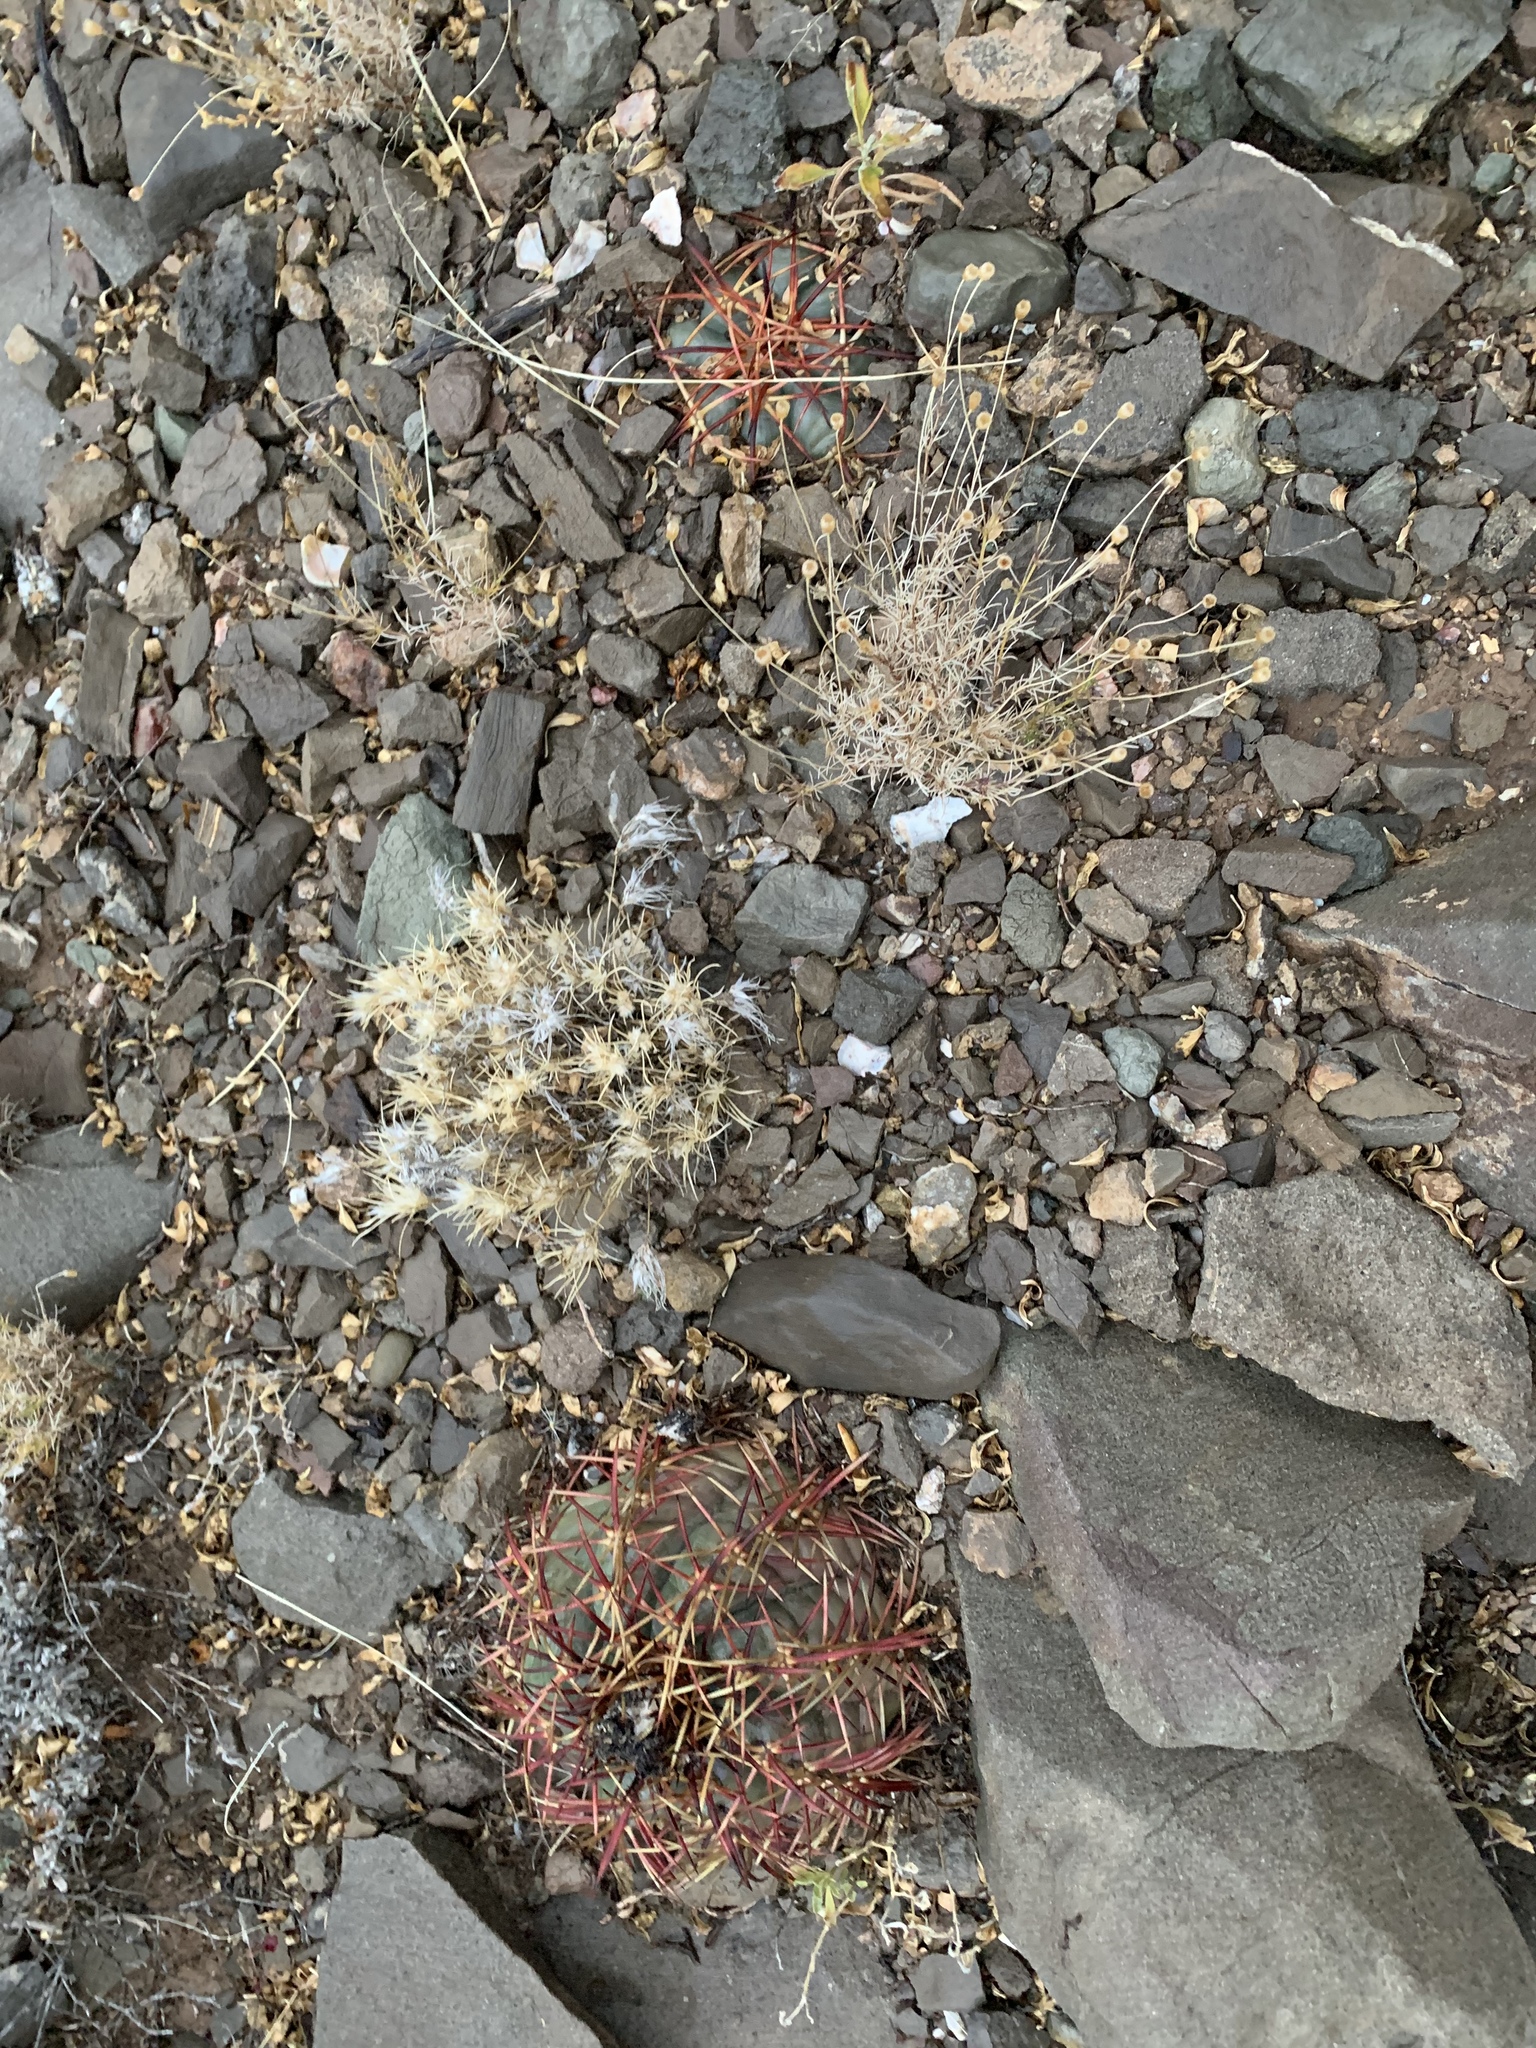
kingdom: Plantae
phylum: Tracheophyta
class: Magnoliopsida
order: Caryophyllales
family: Cactaceae
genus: Echinocactus
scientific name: Echinocactus horizonthalonius
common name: Devilshead
